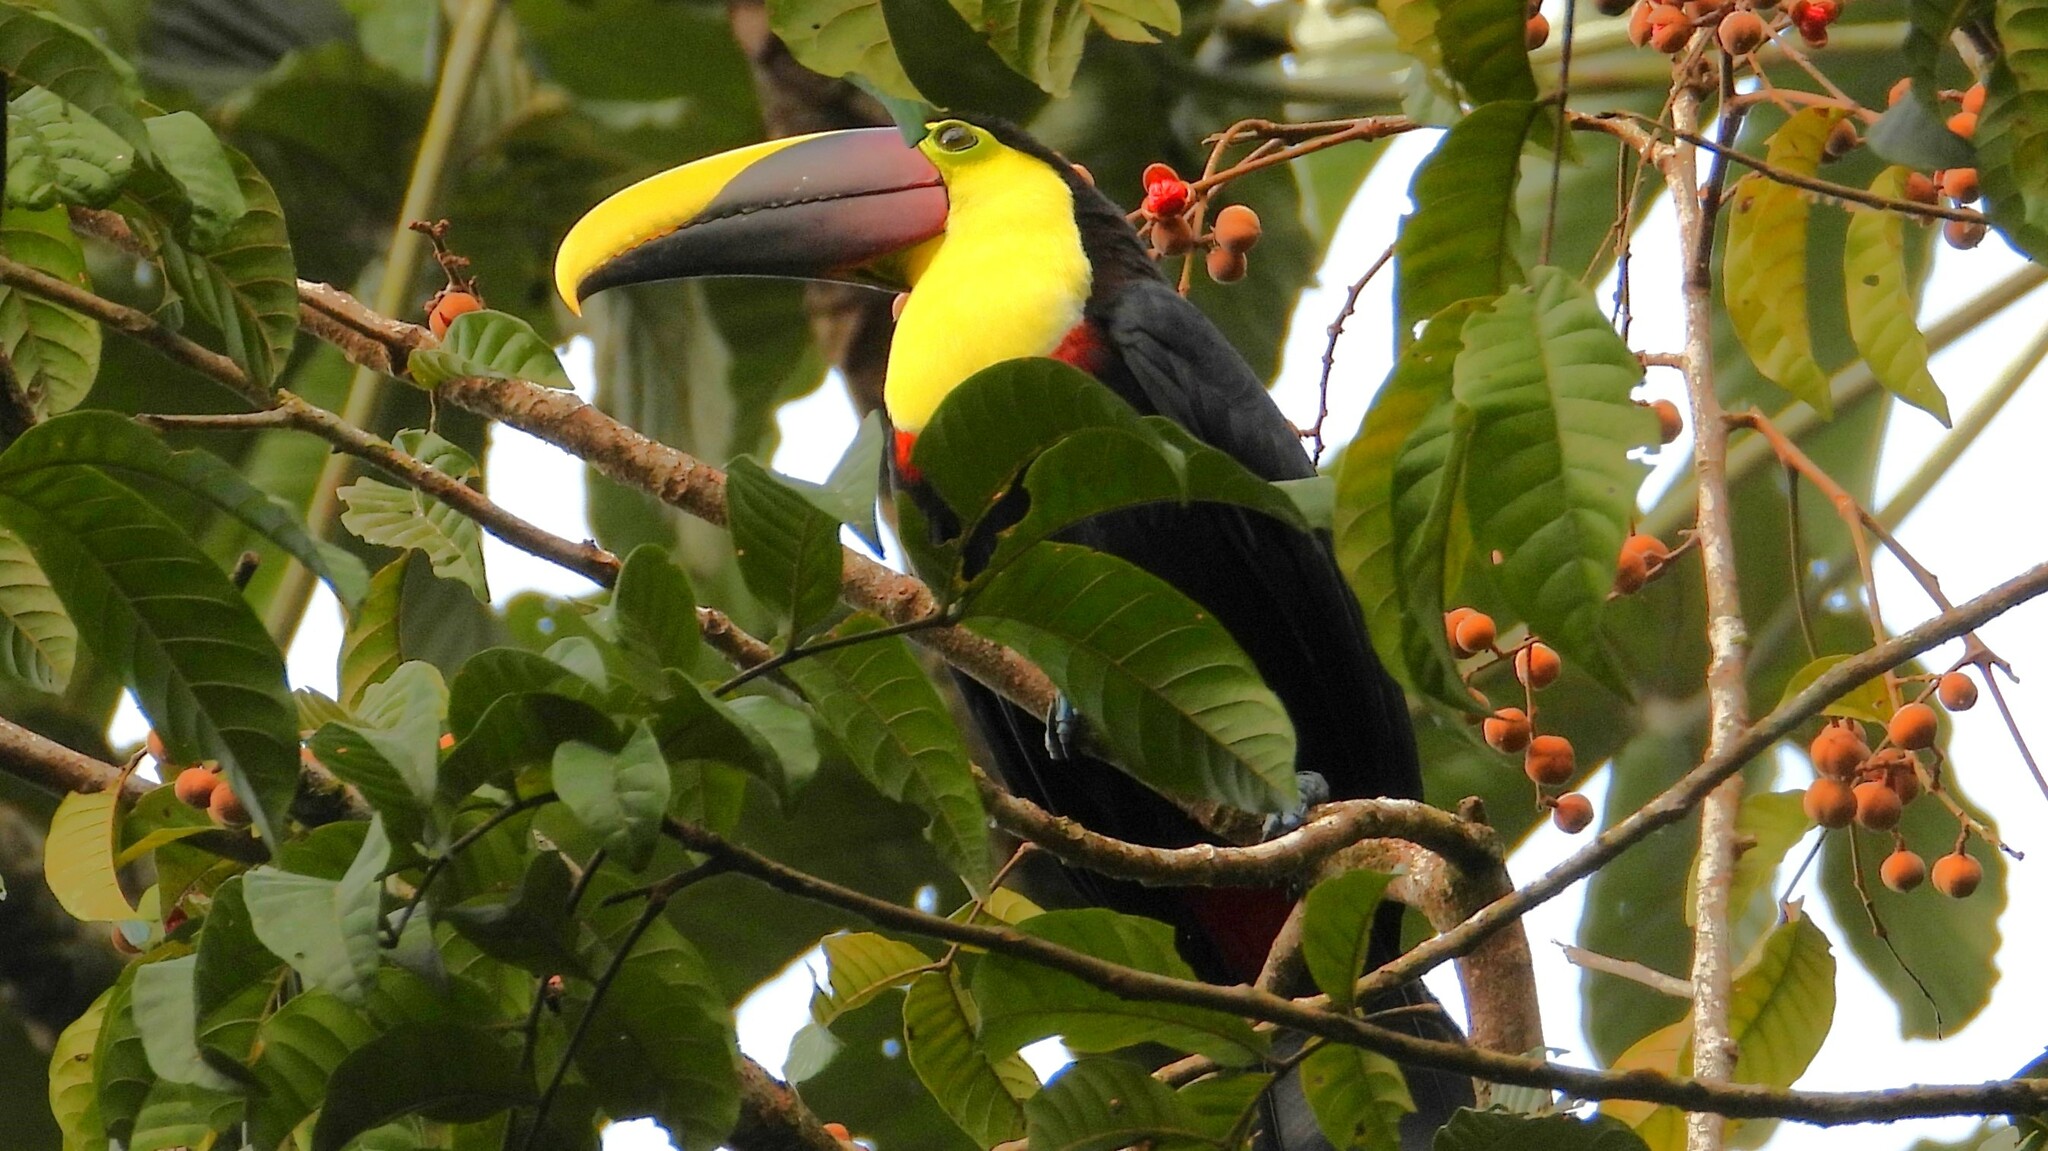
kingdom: Animalia
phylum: Chordata
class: Aves
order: Piciformes
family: Ramphastidae
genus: Ramphastos
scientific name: Ramphastos ambiguus
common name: Yellow-throated toucan
